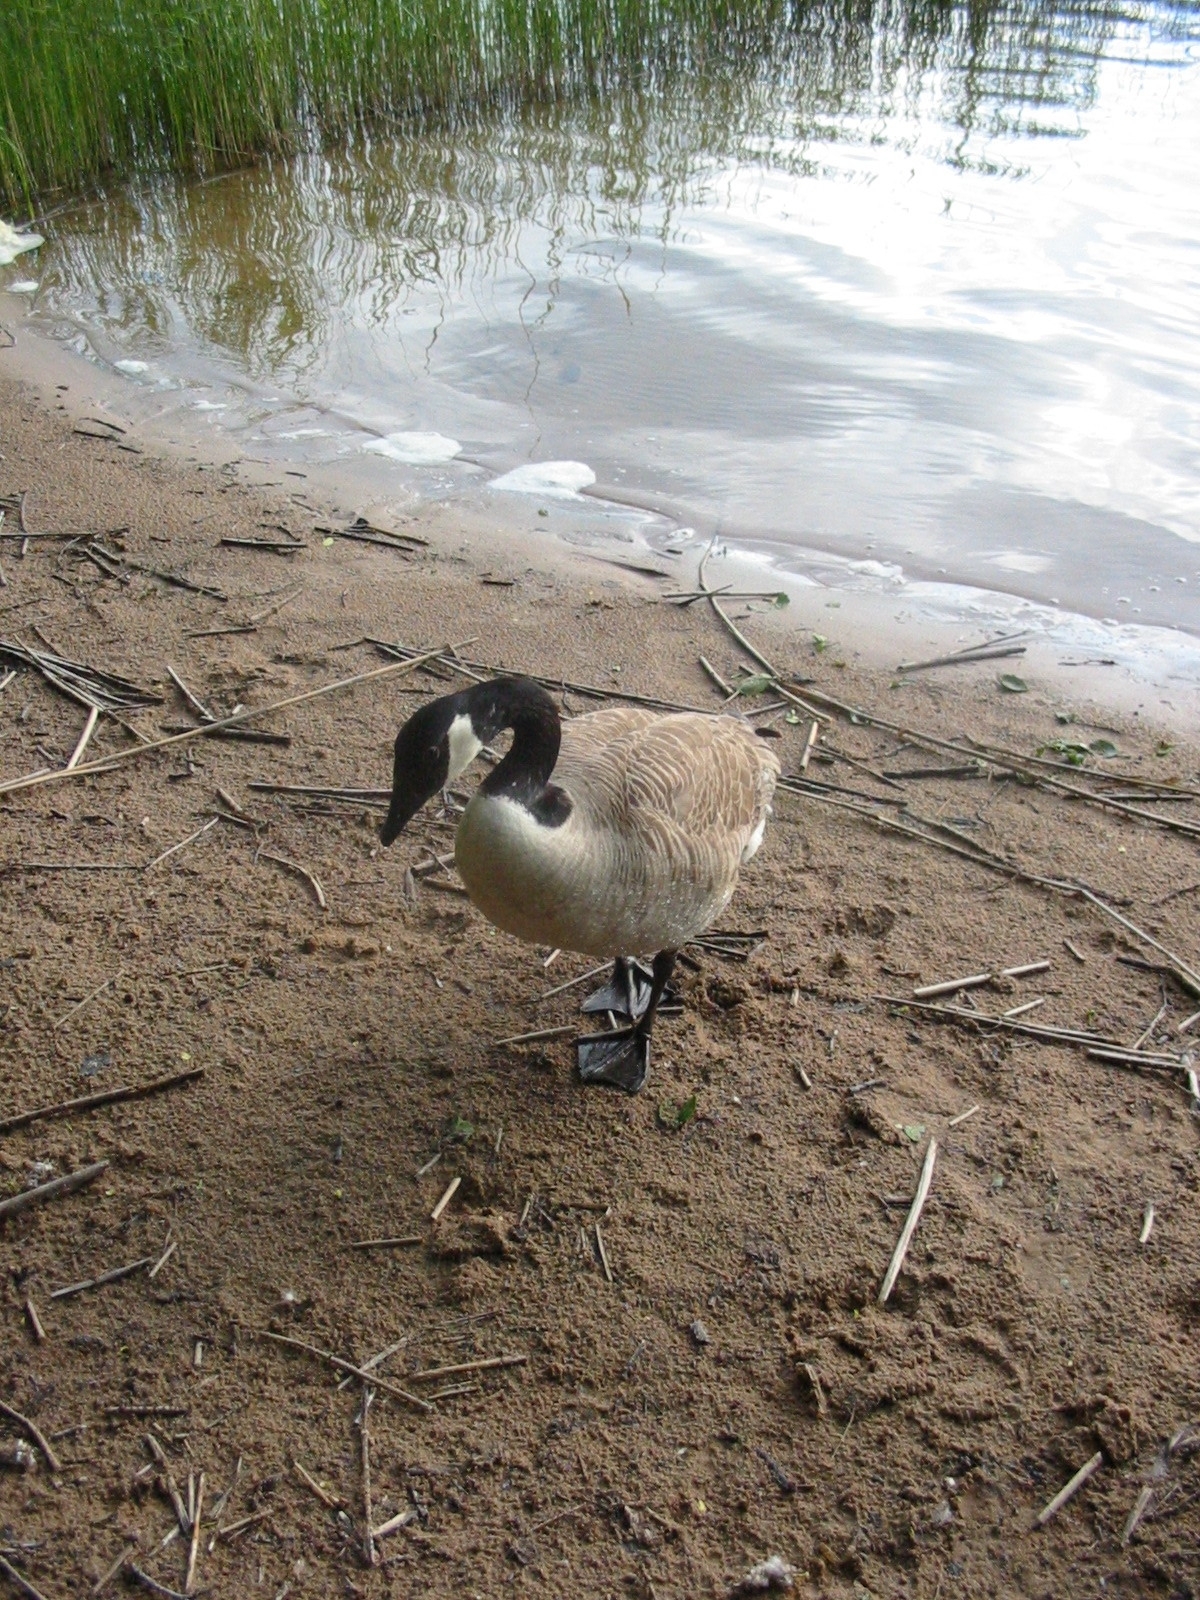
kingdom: Animalia
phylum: Chordata
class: Aves
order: Anseriformes
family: Anatidae
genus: Branta
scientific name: Branta canadensis
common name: Canada goose
